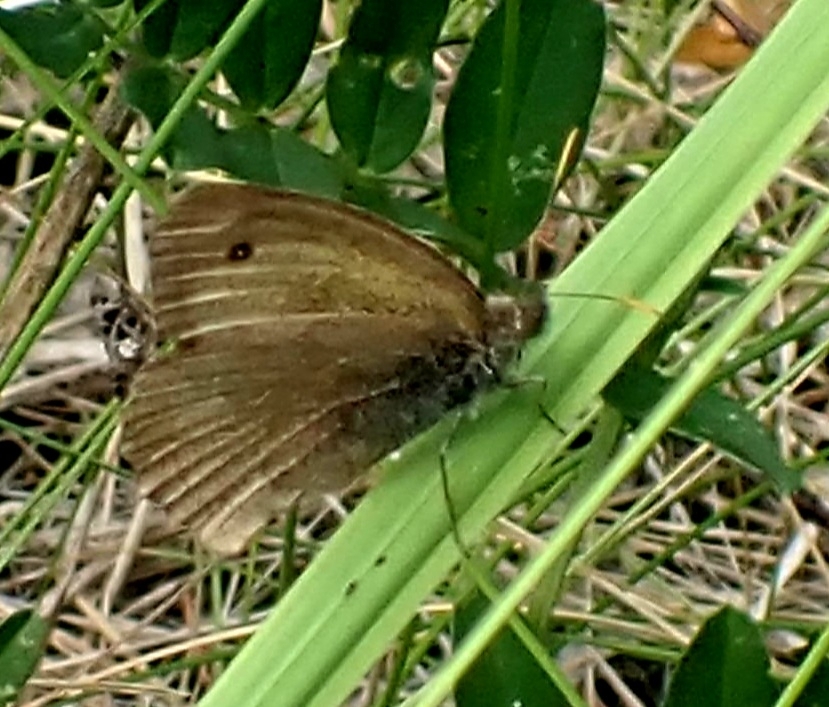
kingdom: Animalia
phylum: Arthropoda
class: Insecta
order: Lepidoptera
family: Nymphalidae
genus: Hyponephele
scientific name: Hyponephele lycaon
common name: Dusky meadow brown
